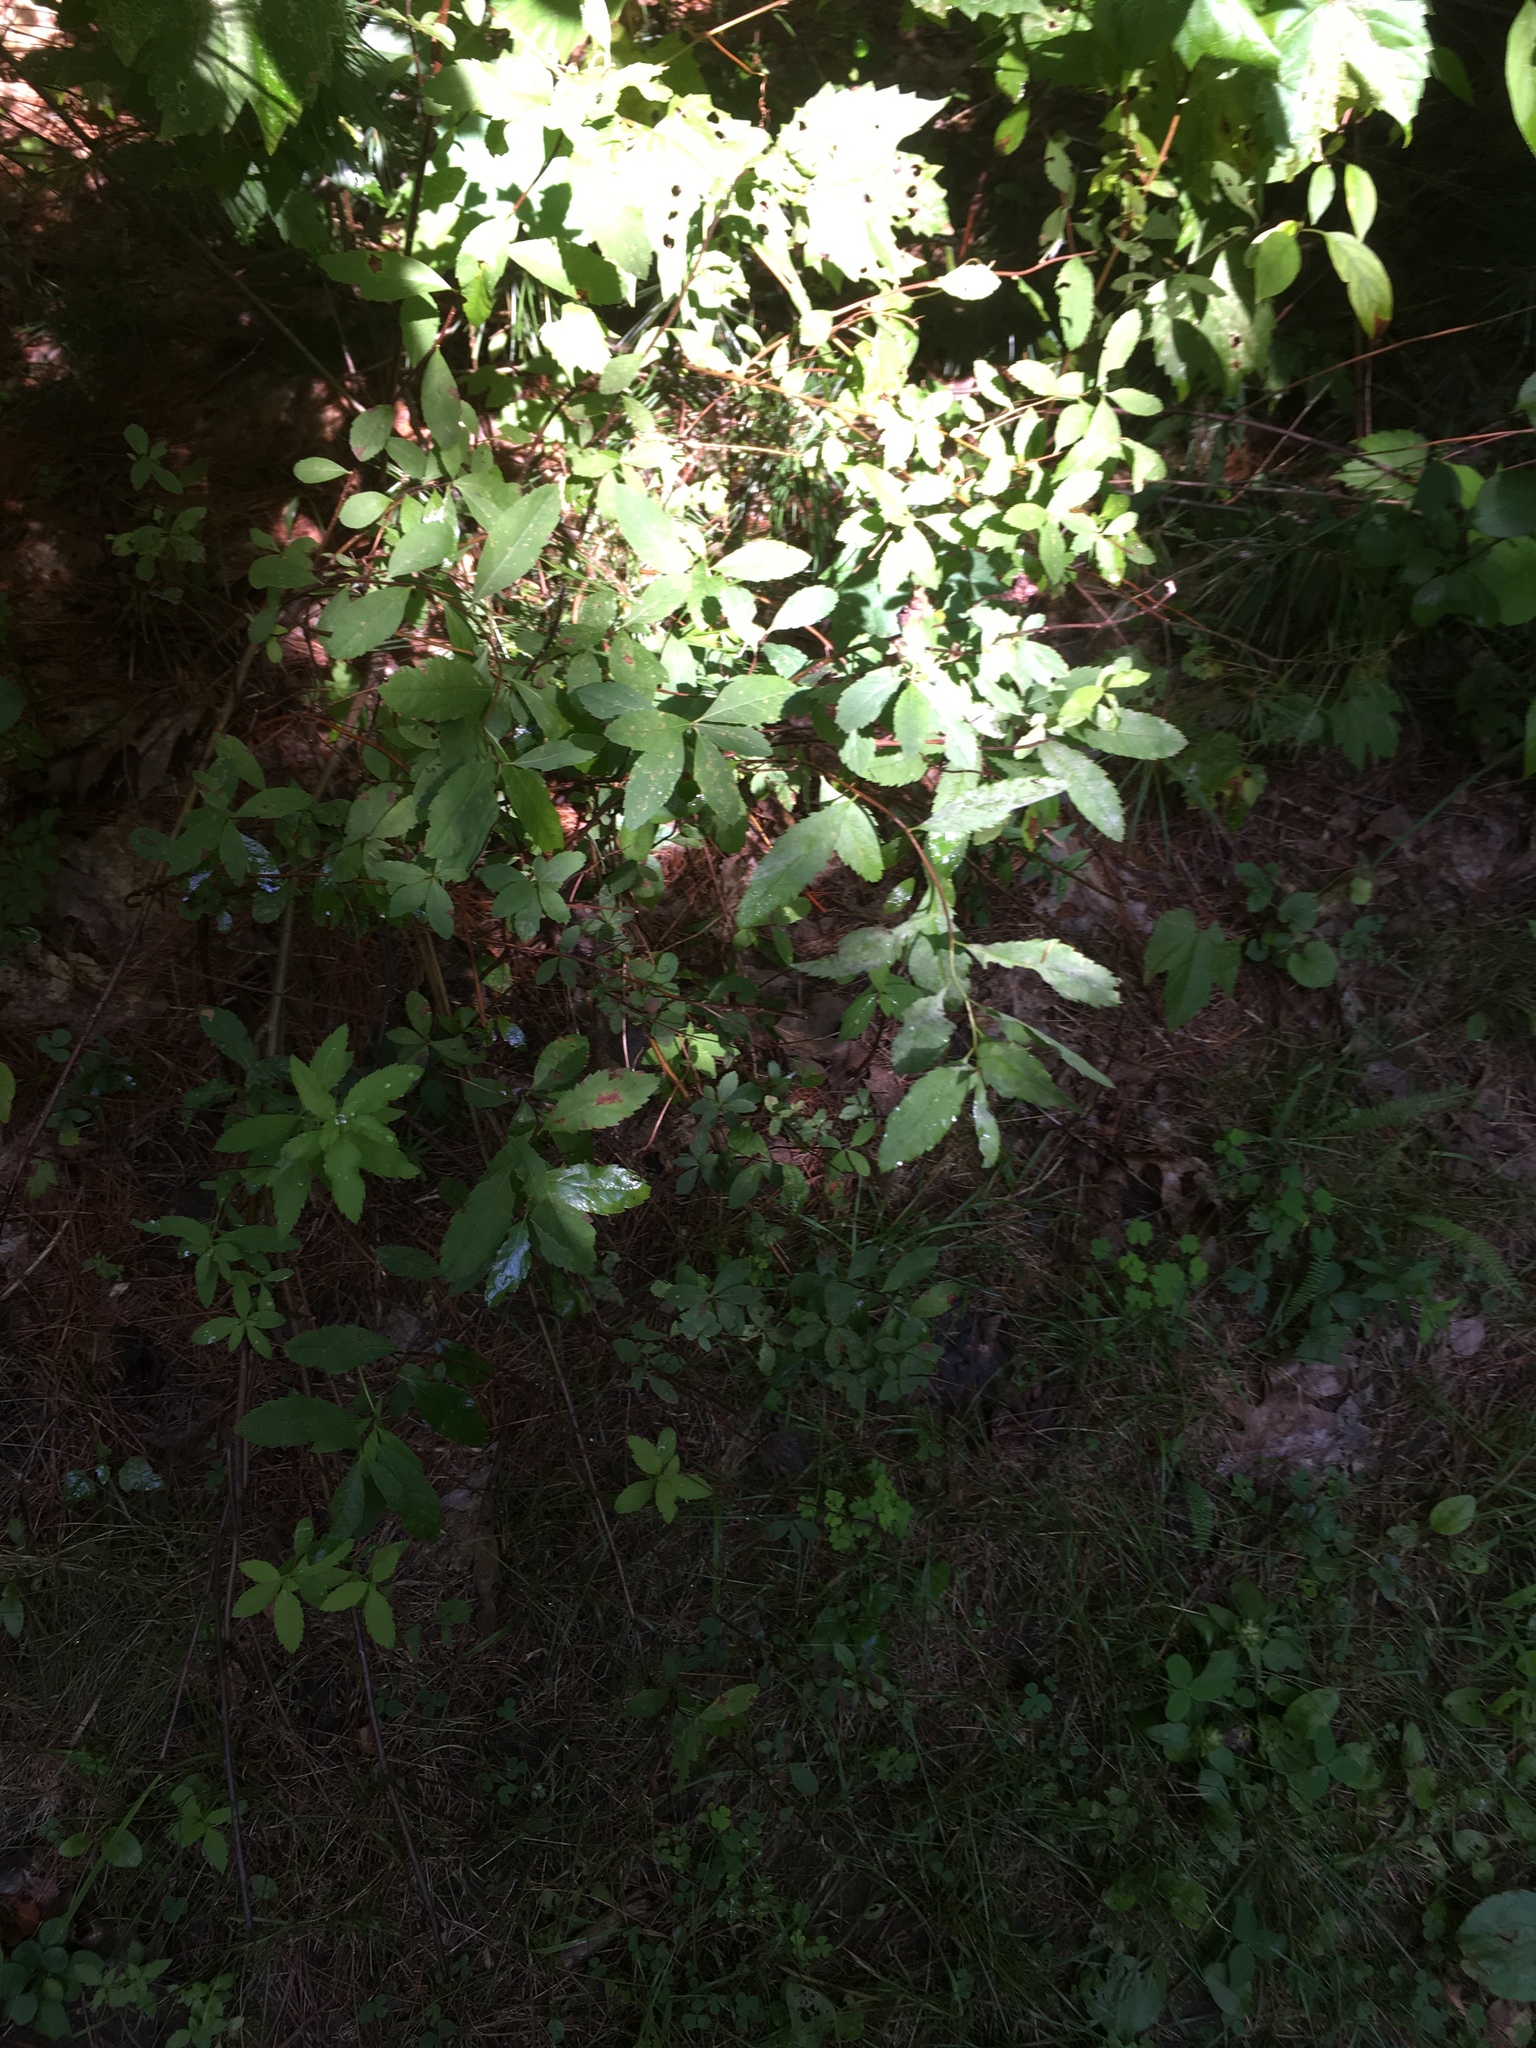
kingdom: Plantae
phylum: Tracheophyta
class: Magnoliopsida
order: Rosales
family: Rosaceae
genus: Spiraea
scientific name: Spiraea alba
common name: Pale bridewort
